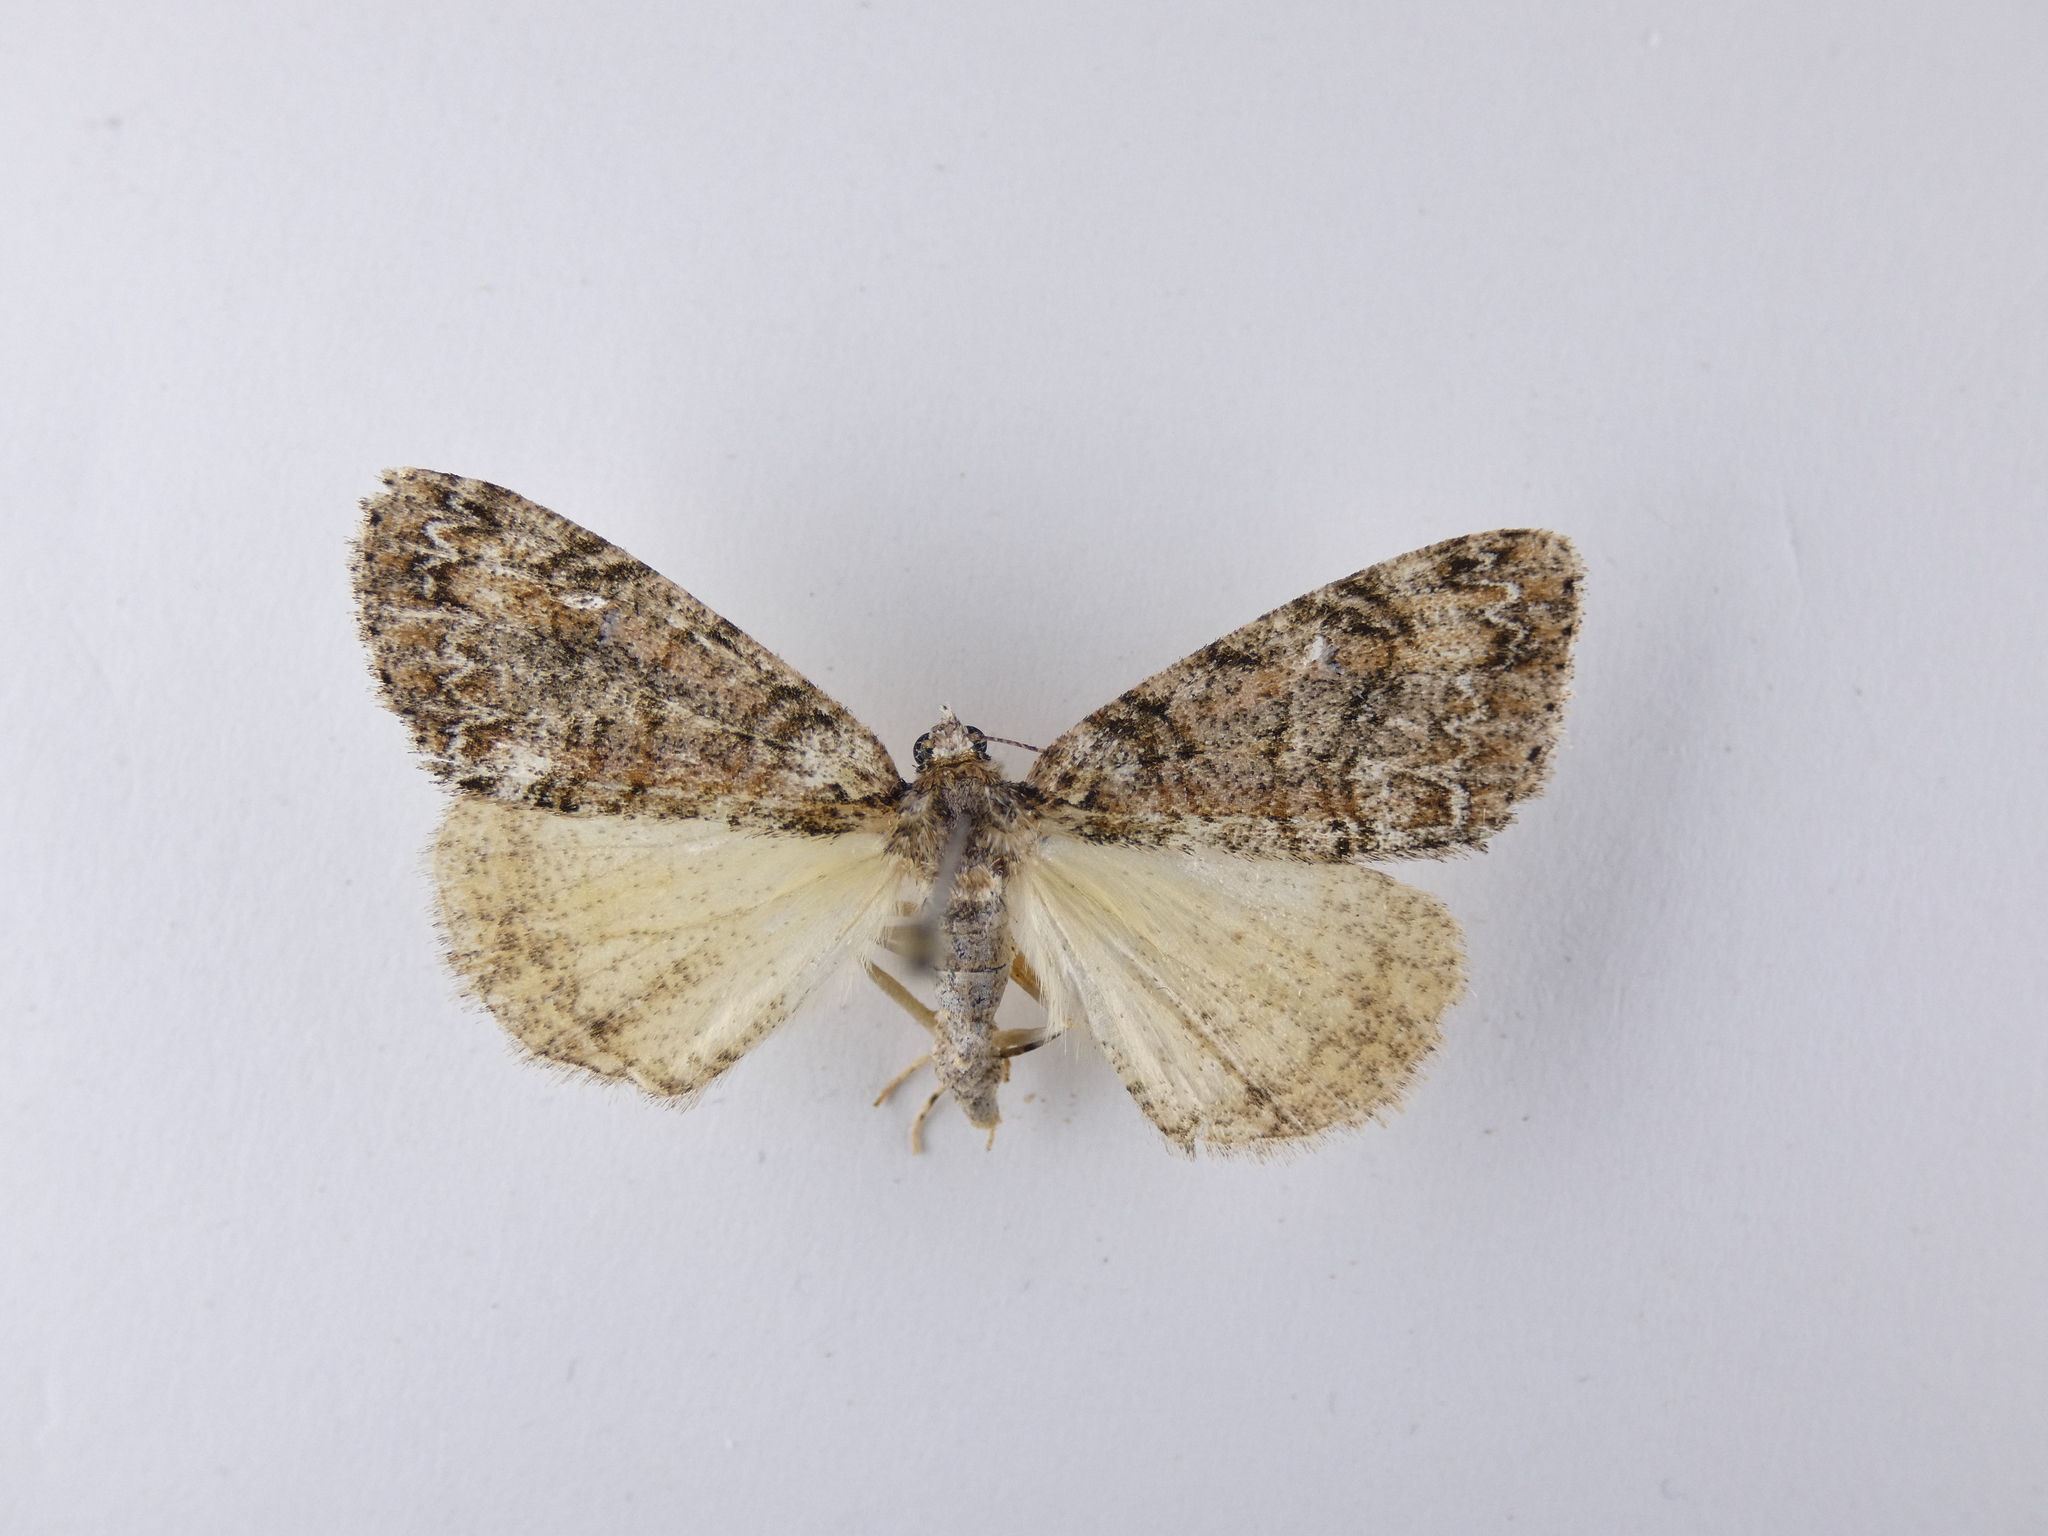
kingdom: Animalia
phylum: Arthropoda
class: Insecta
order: Lepidoptera
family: Geometridae
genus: Pseudocoremia
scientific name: Pseudocoremia suavis
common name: Common forest looper
